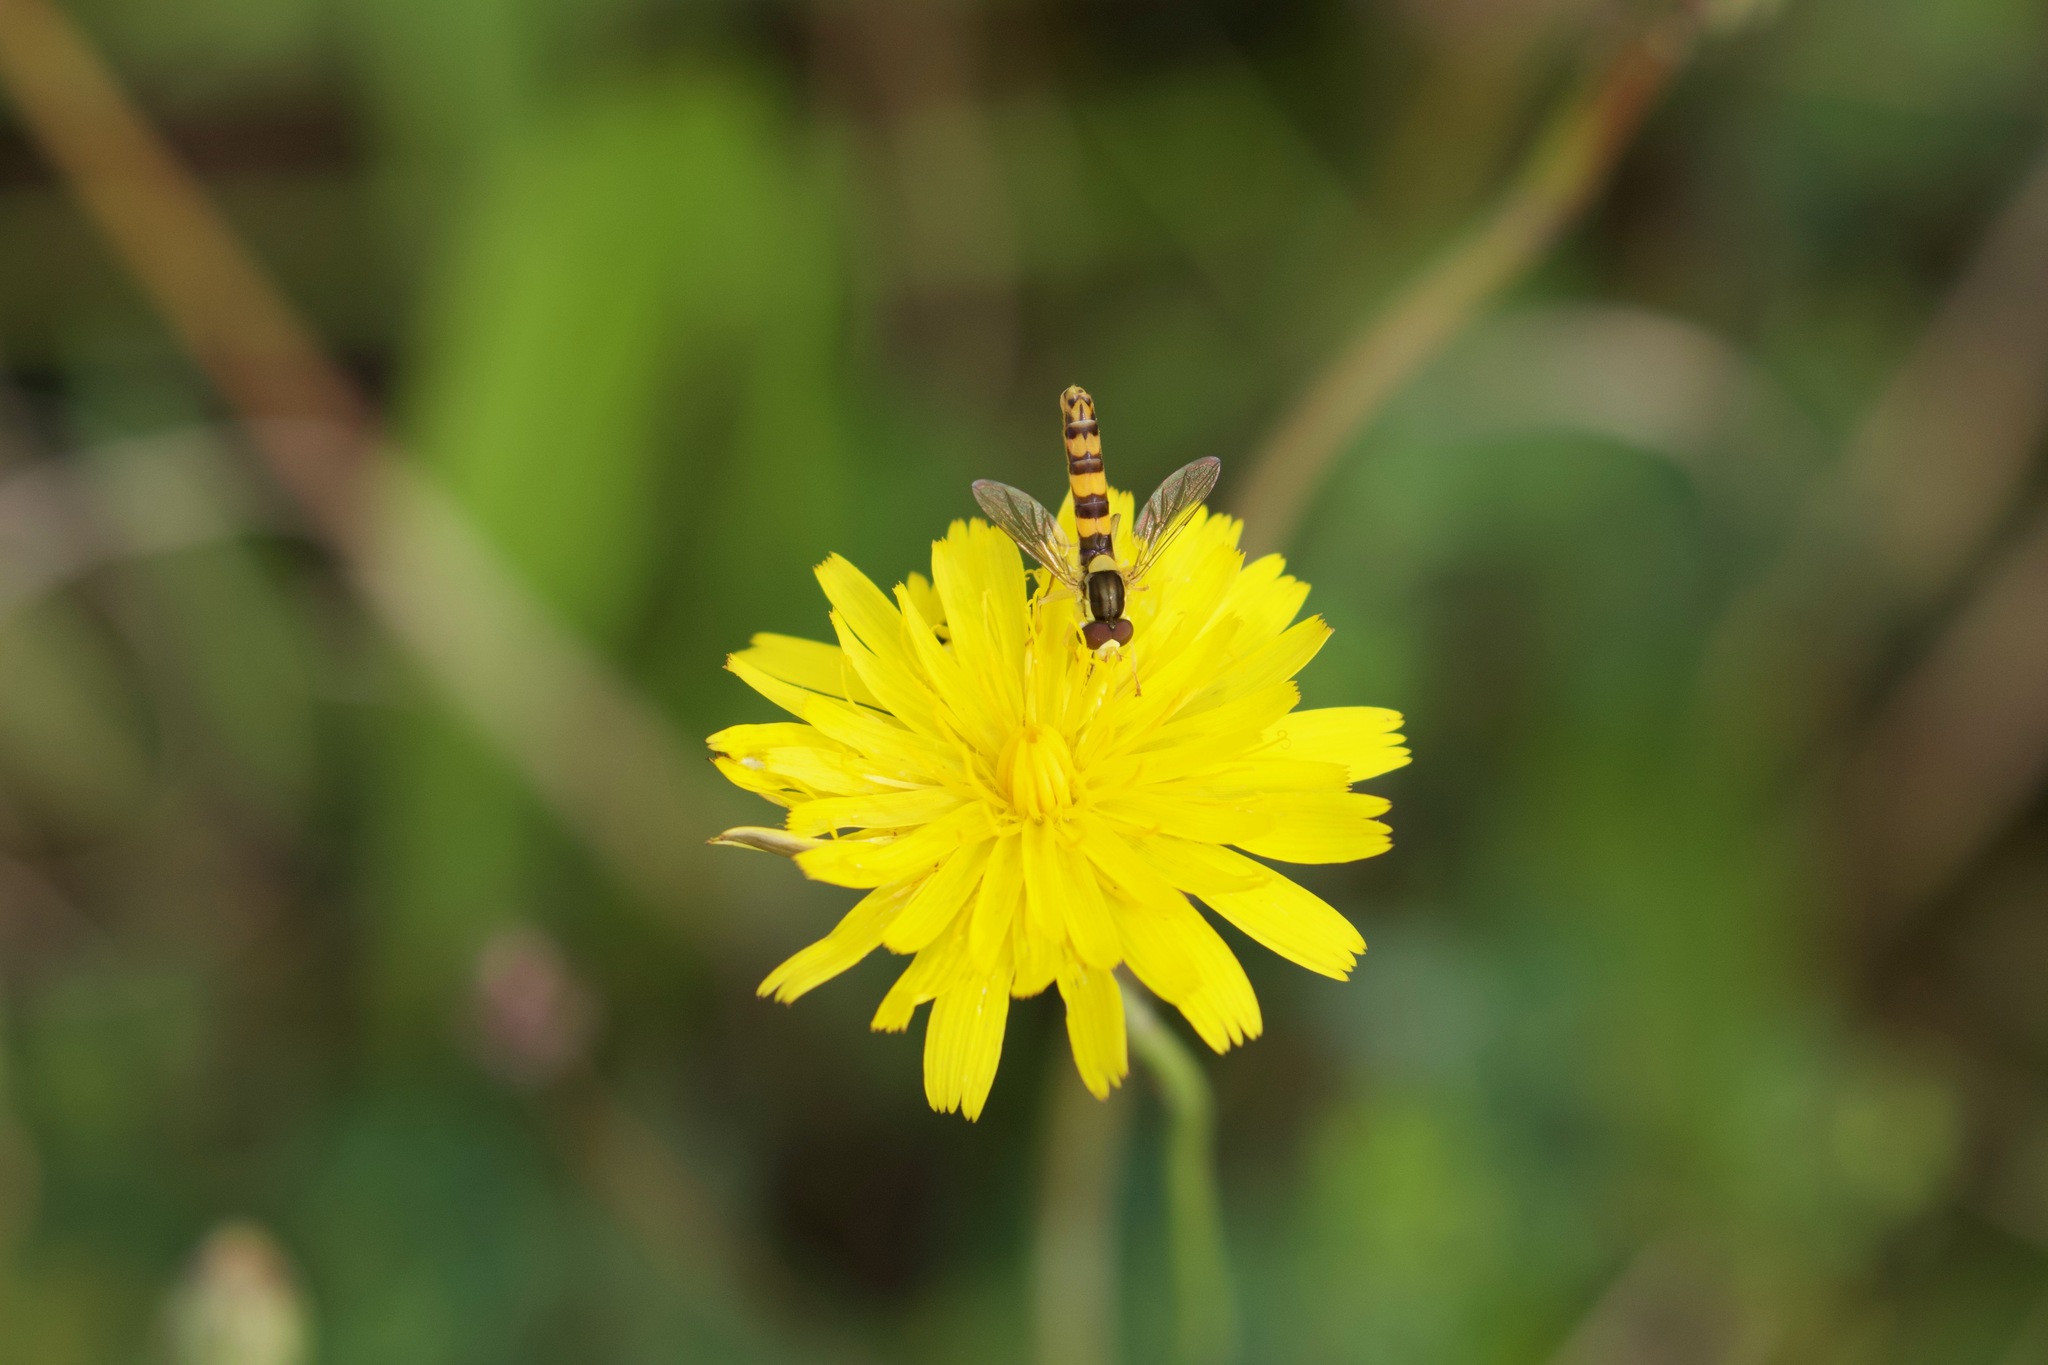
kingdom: Animalia
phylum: Arthropoda
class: Insecta
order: Diptera
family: Syrphidae
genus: Sphaerophoria
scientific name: Sphaerophoria scripta
